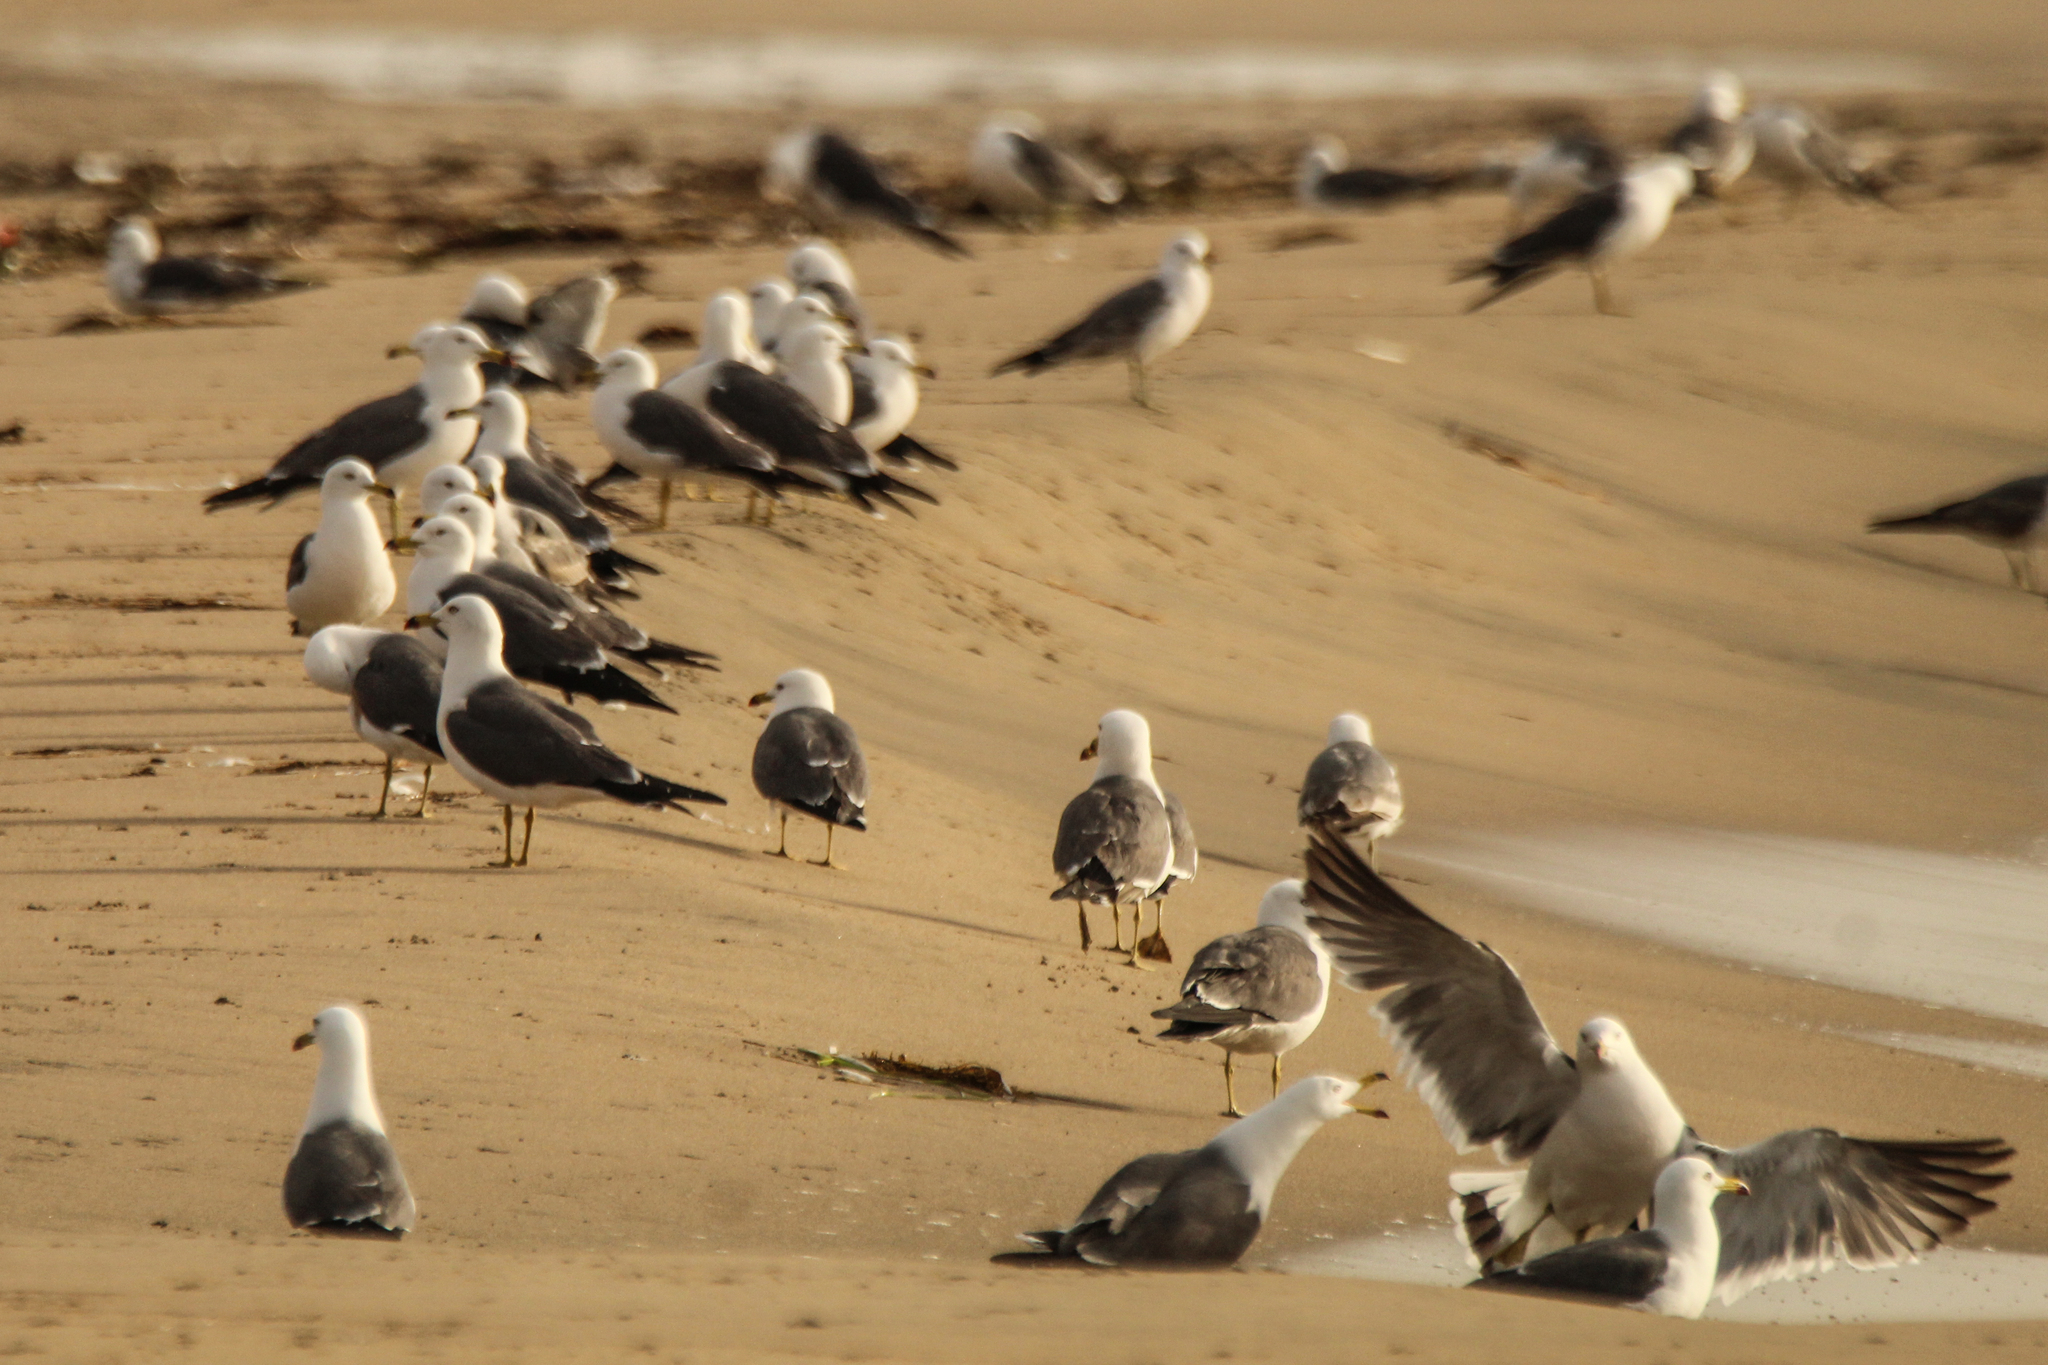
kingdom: Animalia
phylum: Chordata
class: Aves
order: Charadriiformes
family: Laridae
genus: Larus
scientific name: Larus crassirostris
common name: Black-tailed gull
